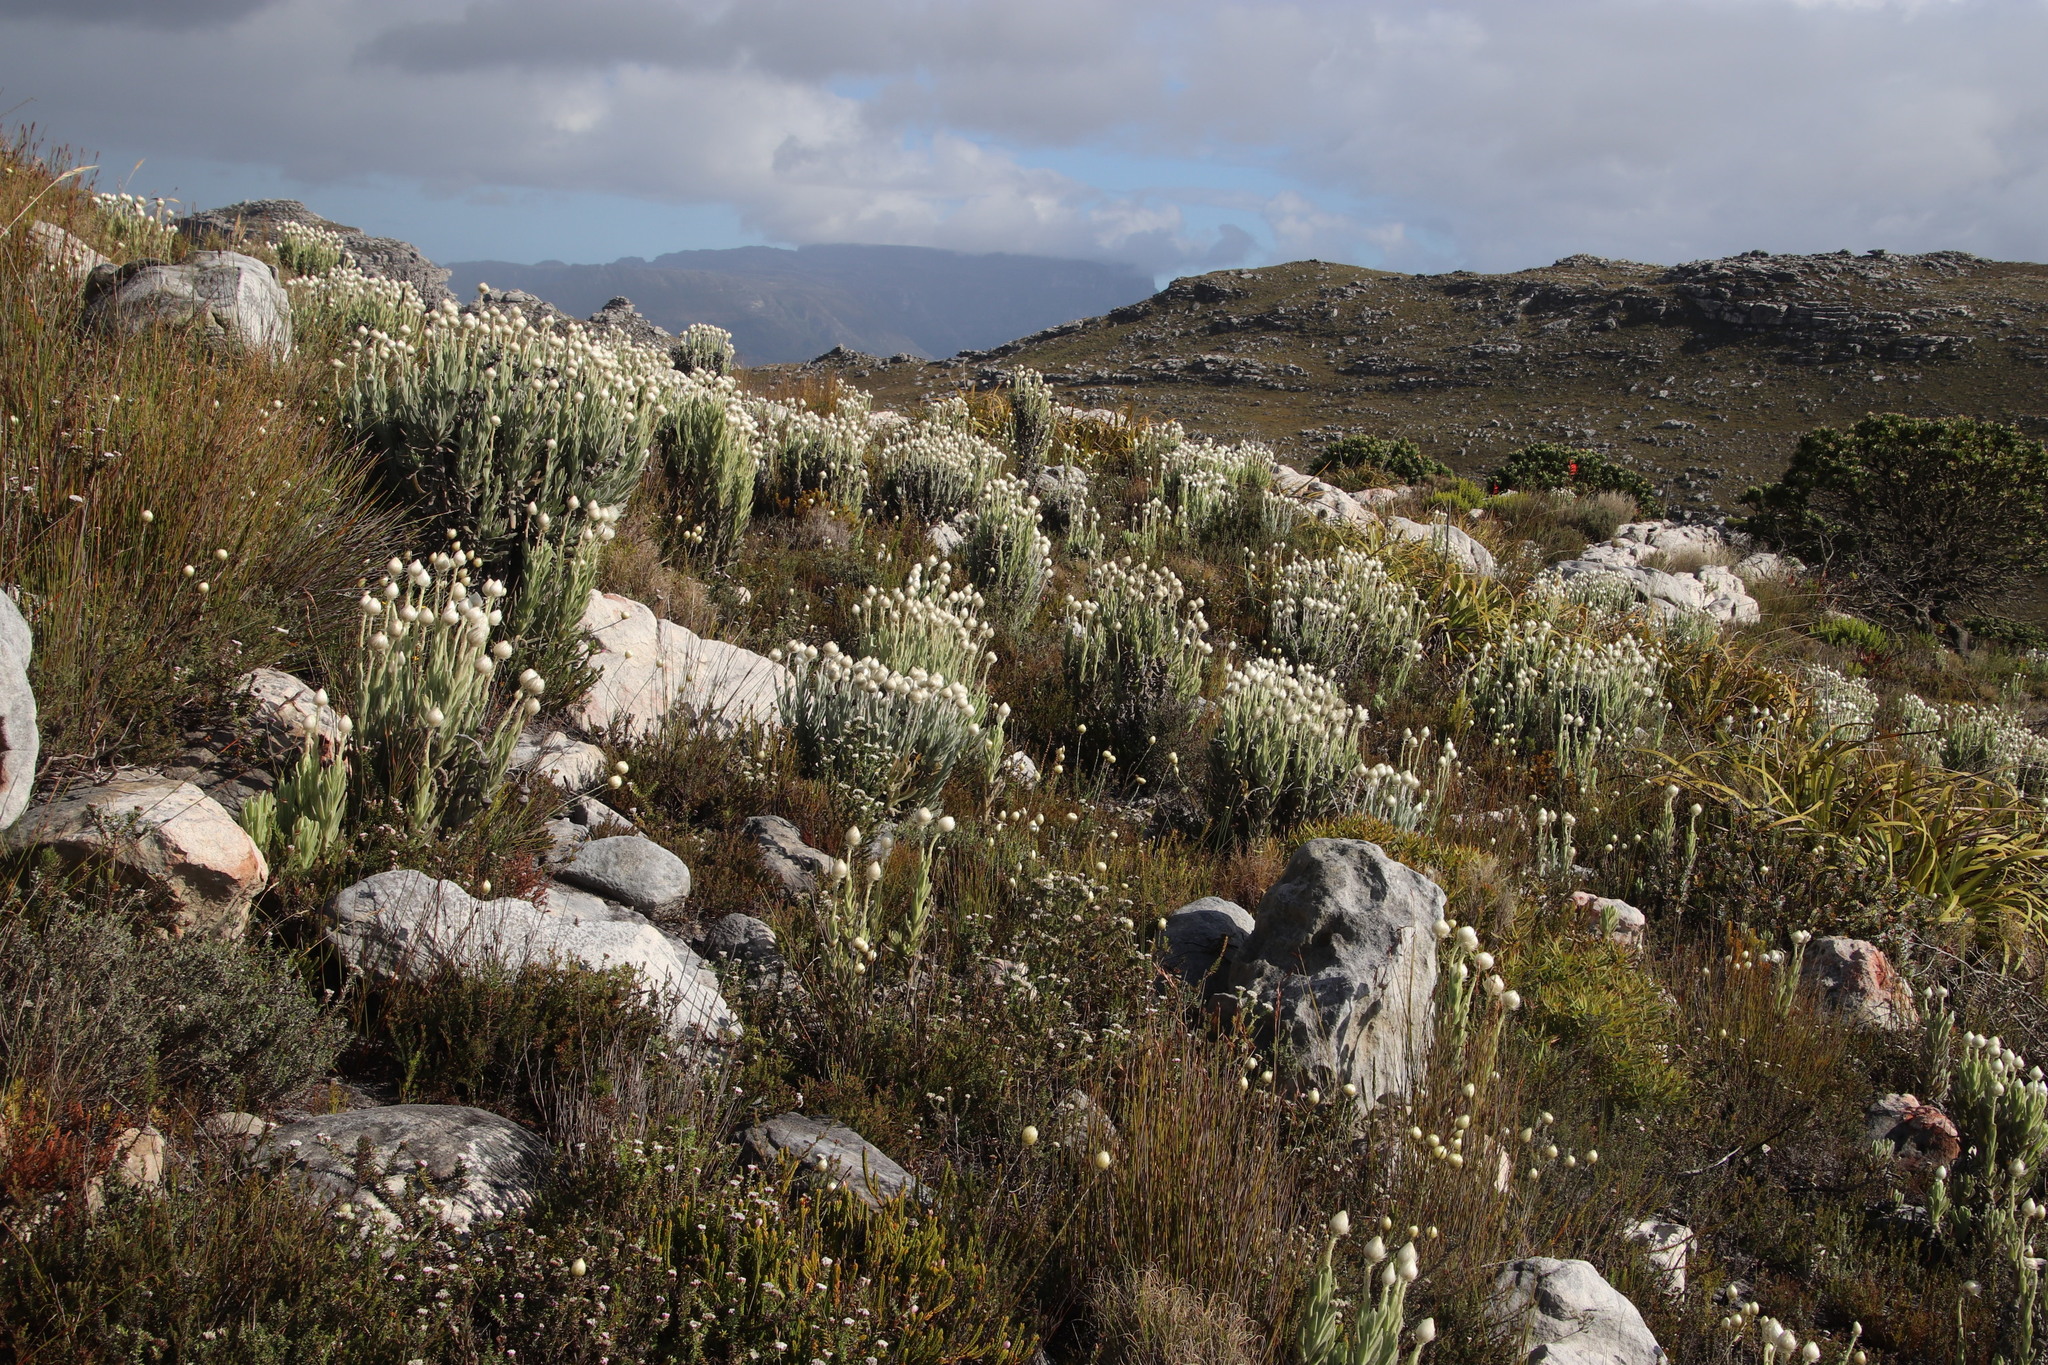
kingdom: Plantae
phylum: Tracheophyta
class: Magnoliopsida
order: Asterales
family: Asteraceae
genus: Syncarpha
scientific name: Syncarpha vestita
